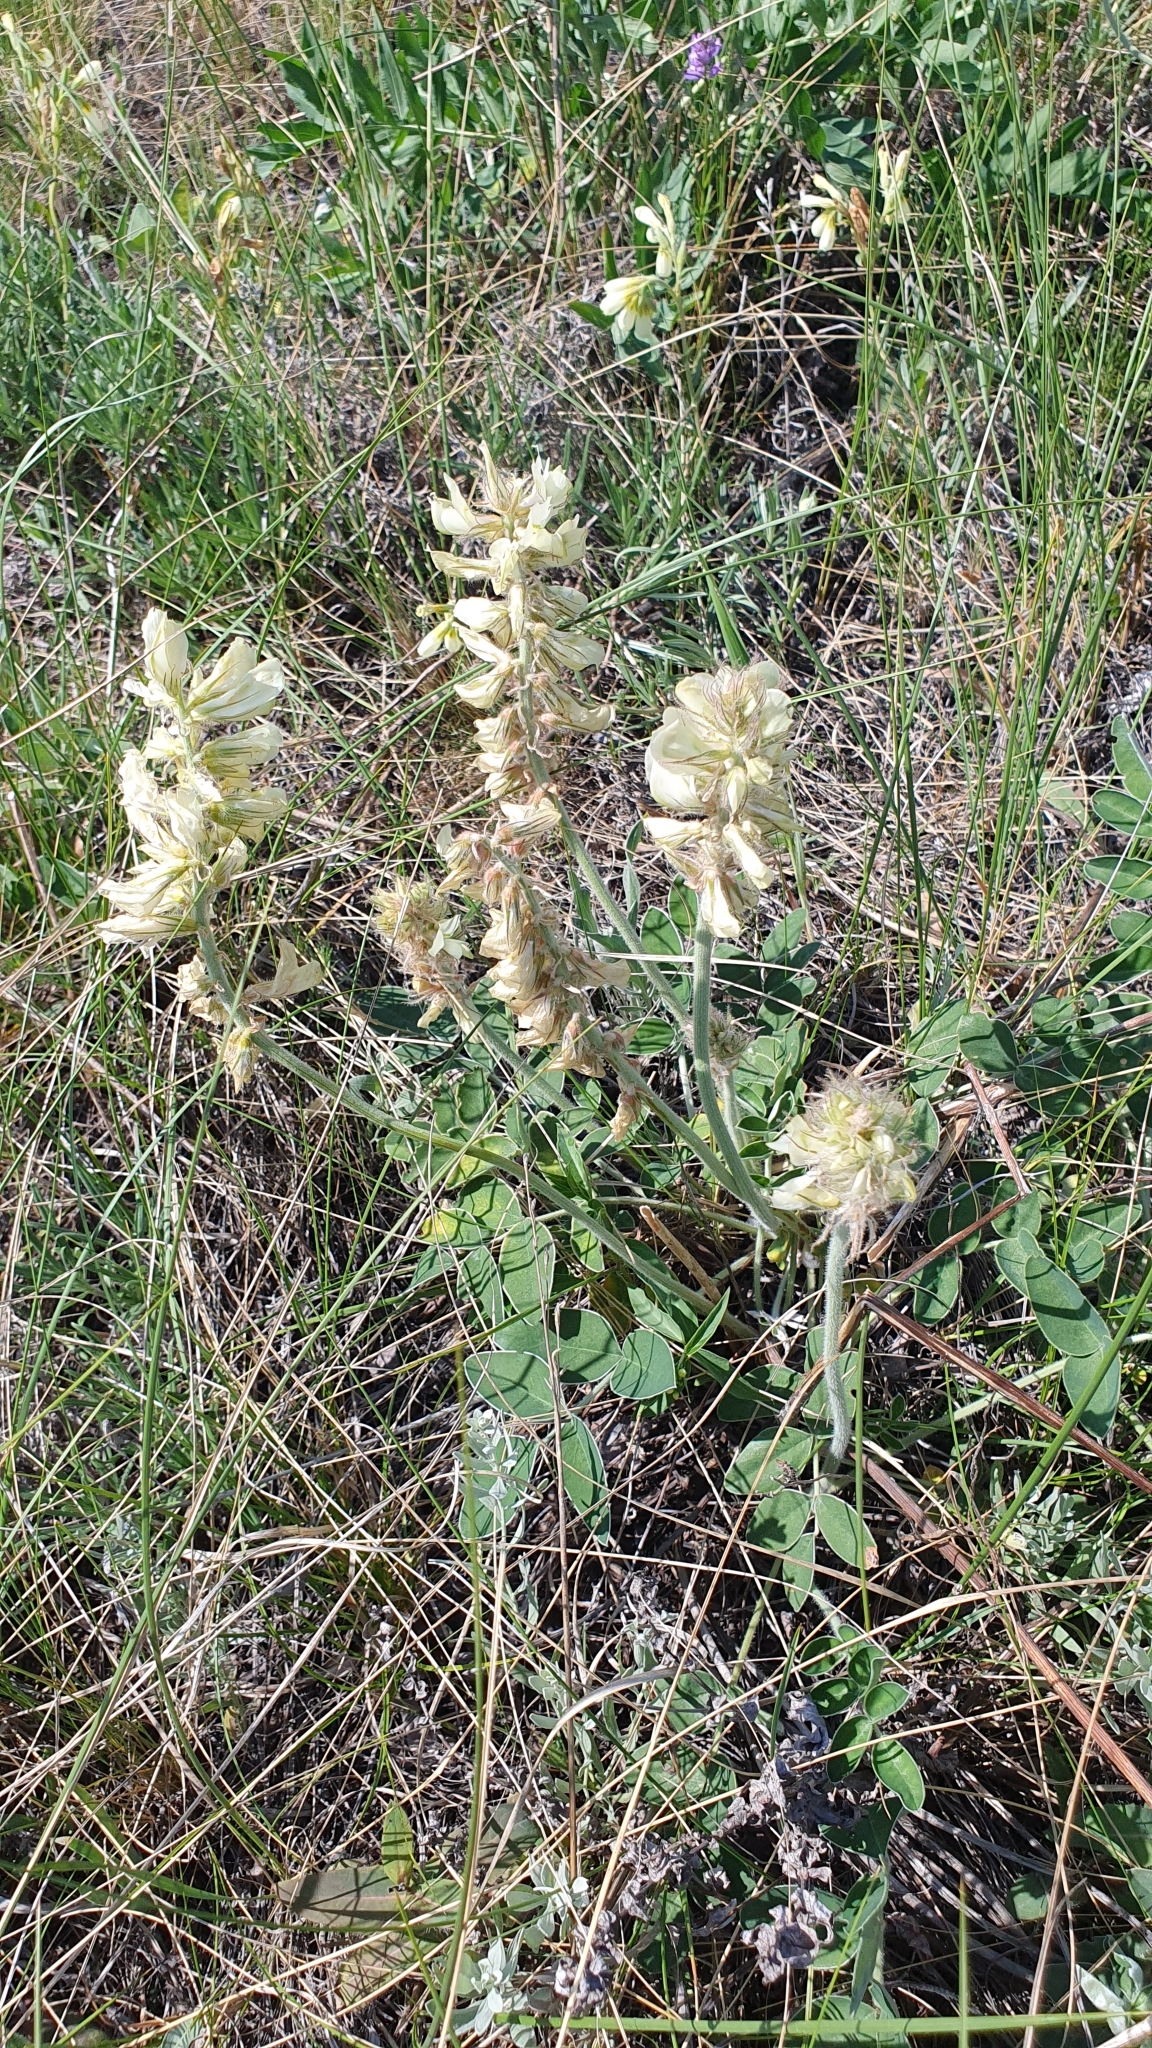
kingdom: Plantae
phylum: Tracheophyta
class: Magnoliopsida
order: Fabales
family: Fabaceae
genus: Hedysarum
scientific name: Hedysarum grandiflorum
